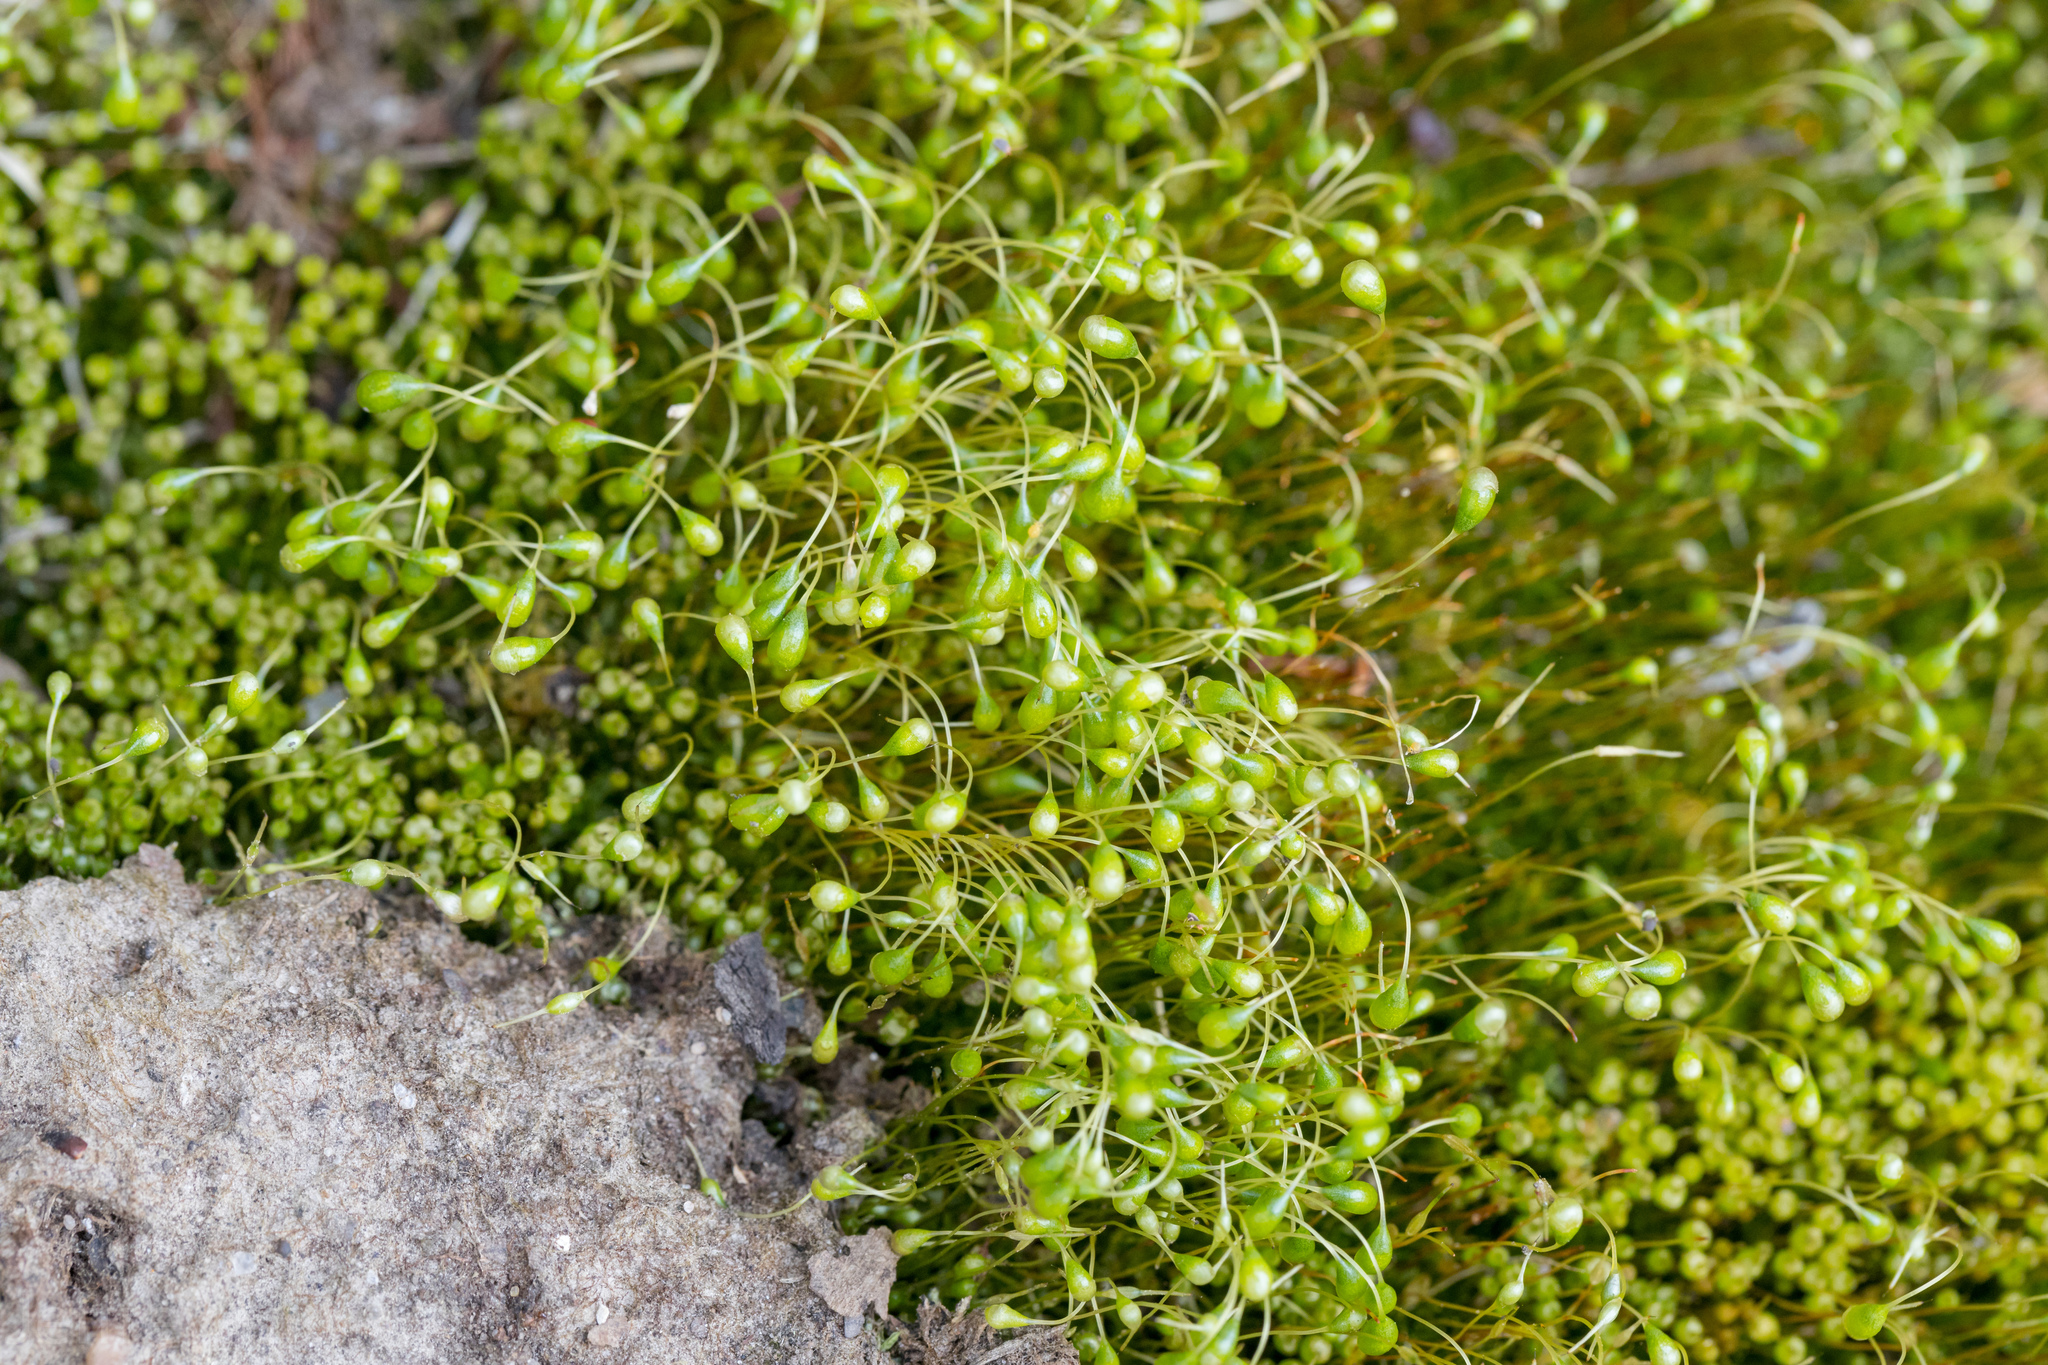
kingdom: Plantae
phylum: Bryophyta
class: Bryopsida
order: Funariales
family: Funariaceae
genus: Physcomitrium
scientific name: Physcomitrium pyriforme
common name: Common bladder-moss
